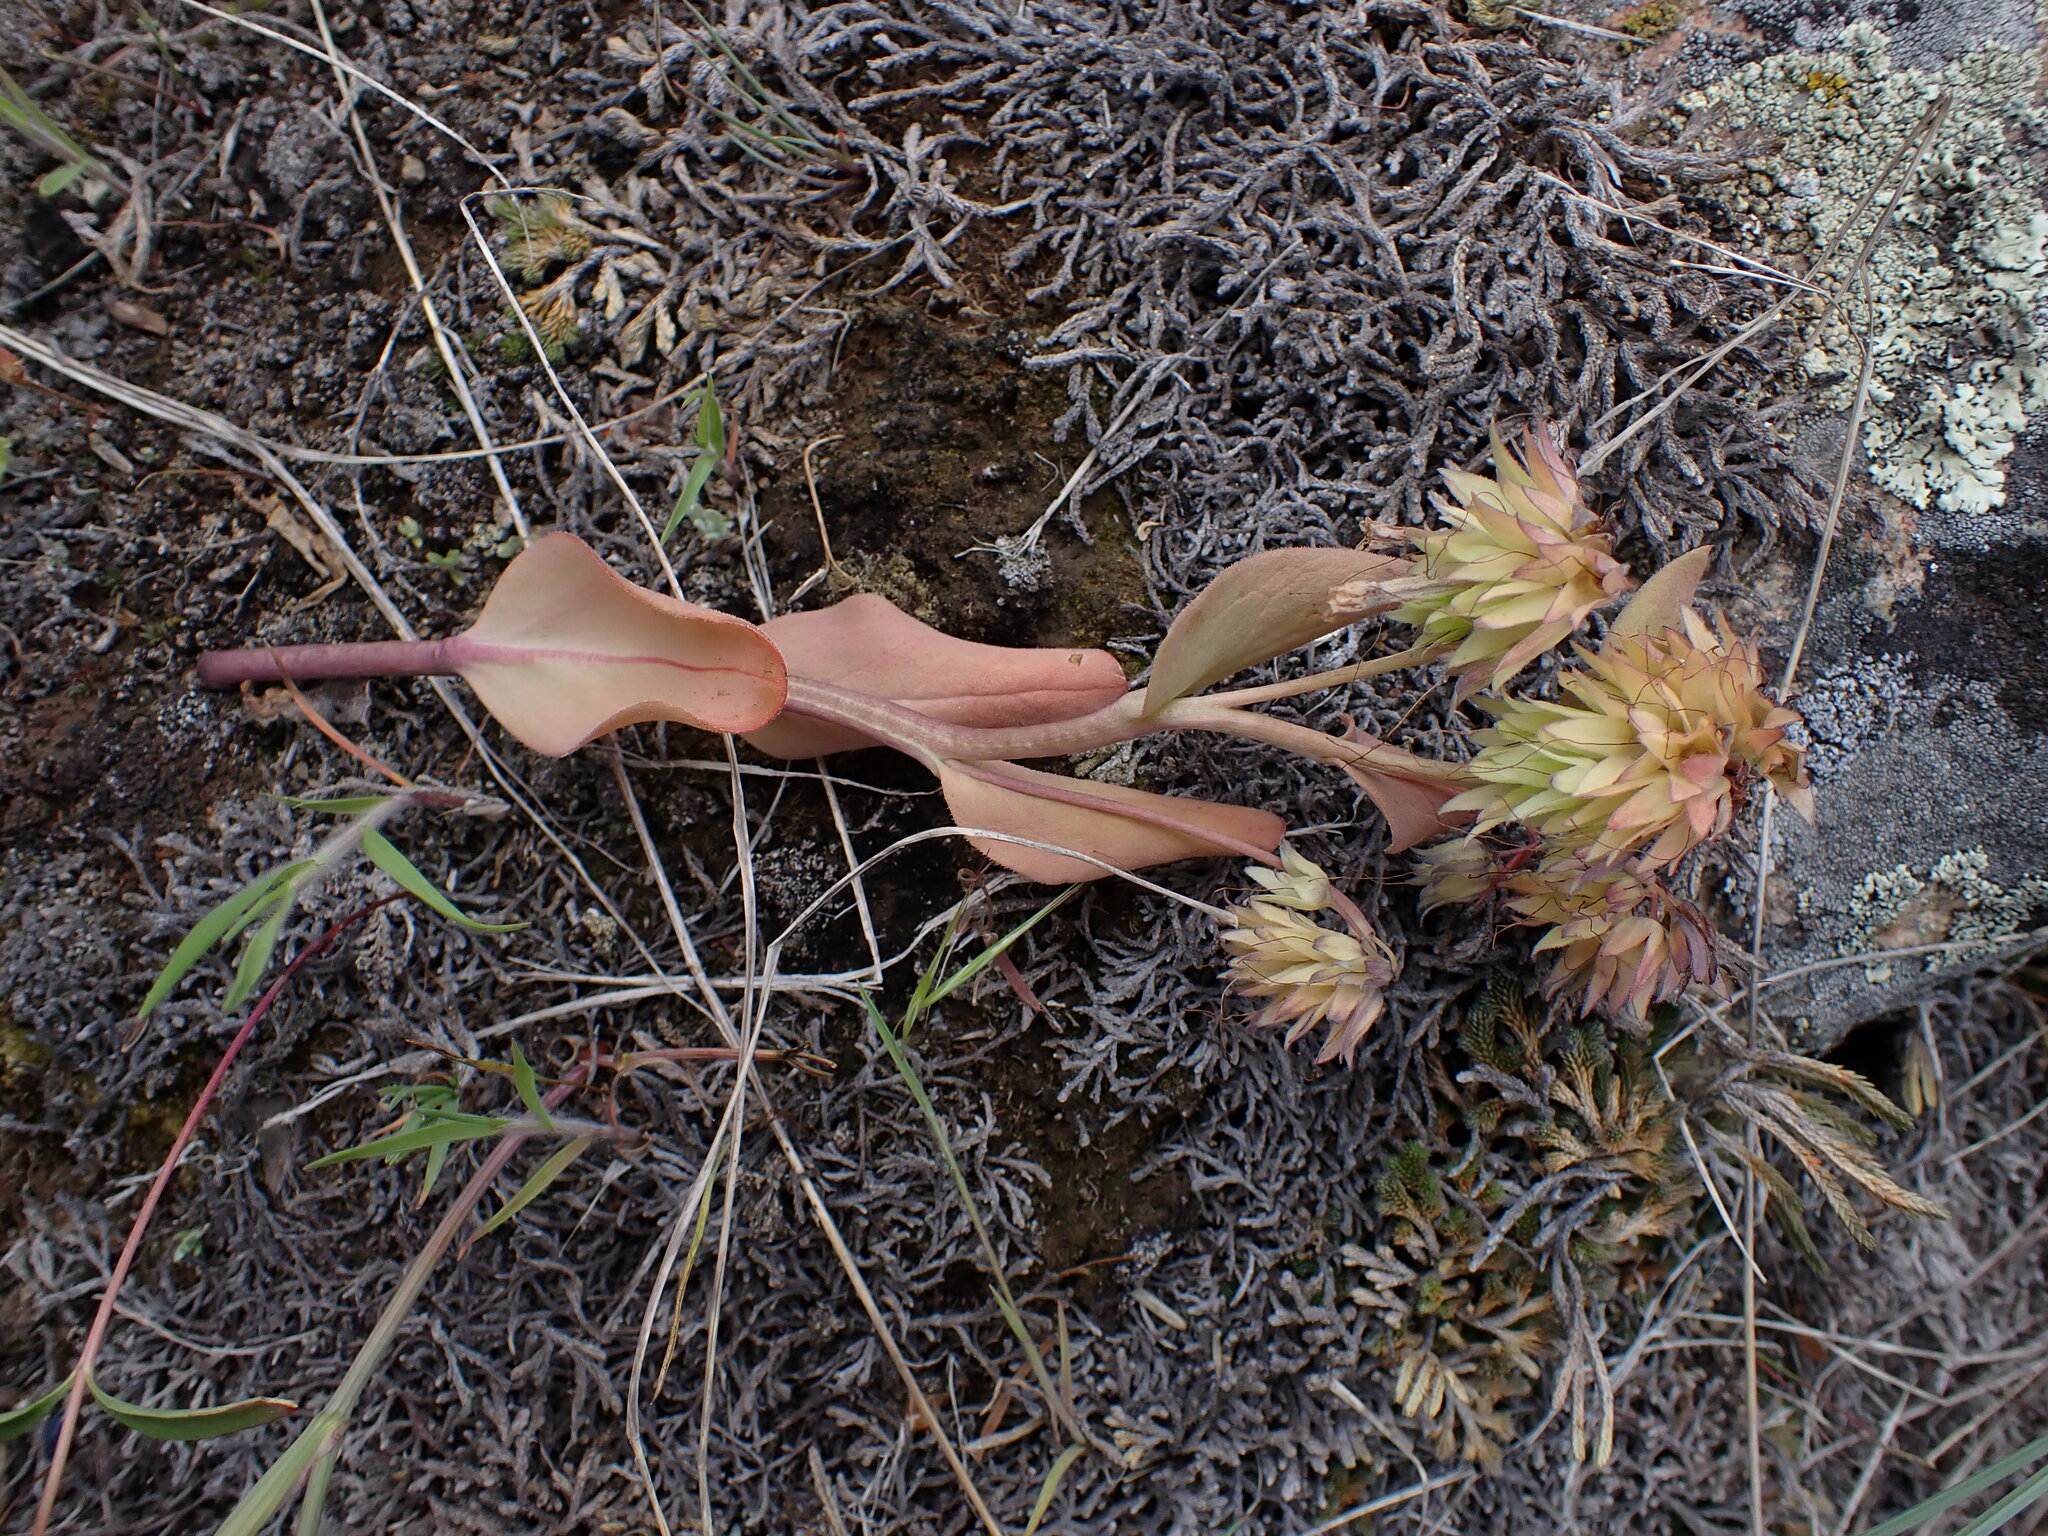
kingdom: Plantae
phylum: Tracheophyta
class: Magnoliopsida
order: Boraginales
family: Boraginaceae
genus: Mertensia
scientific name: Mertensia longiflora
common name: Large-flowered bluebells
